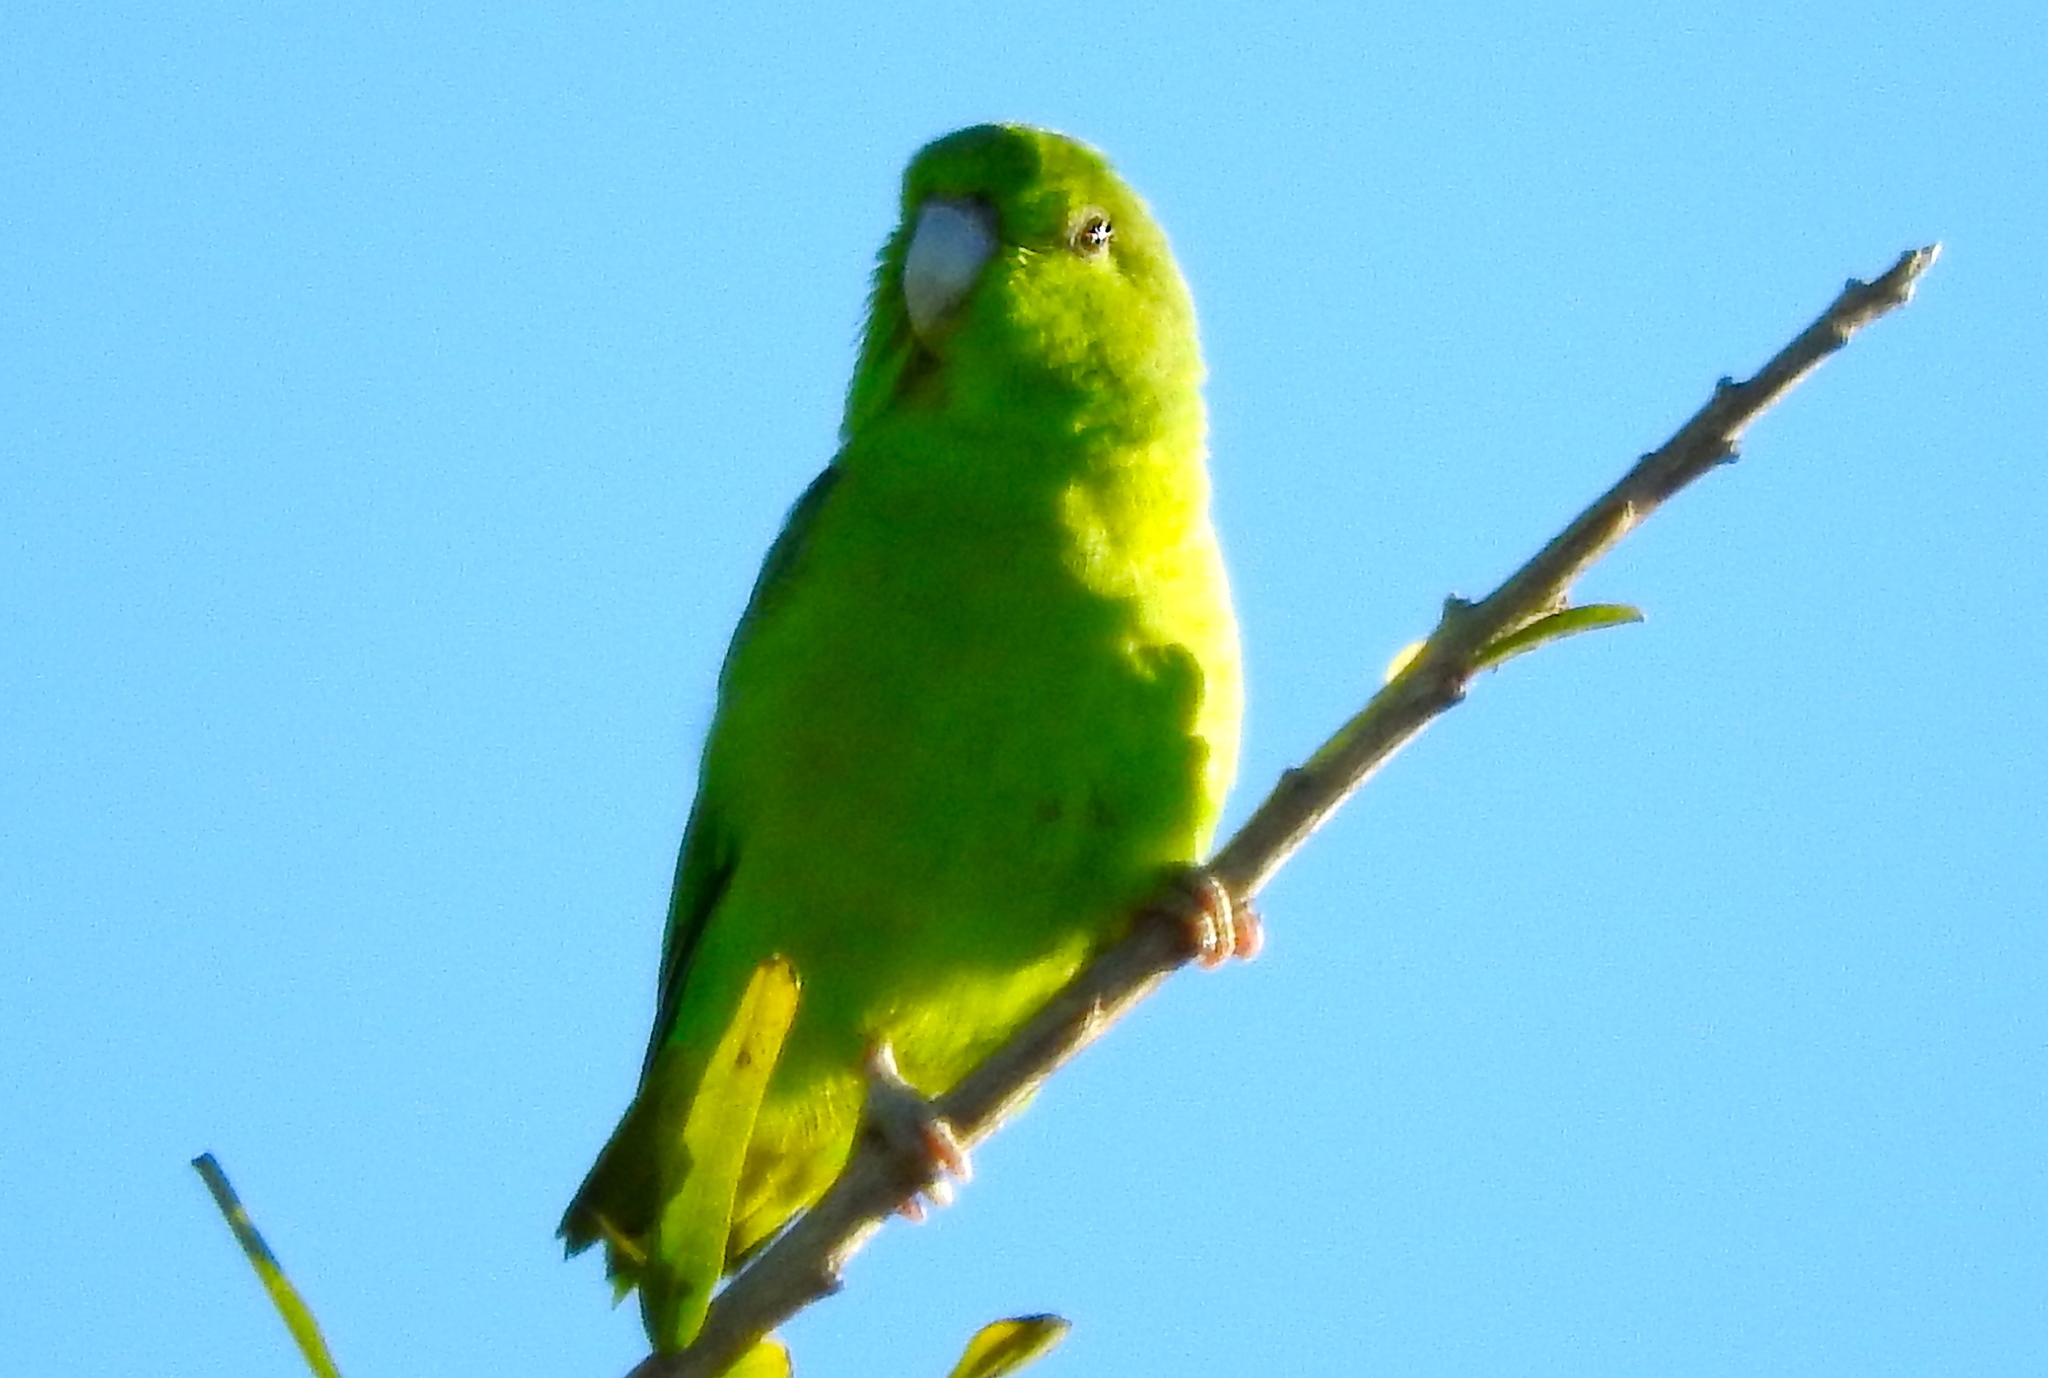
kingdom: Animalia
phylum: Chordata
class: Aves
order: Psittaciformes
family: Psittacidae
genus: Forpus
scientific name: Forpus cyanopygius
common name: Mexican parrotlet
